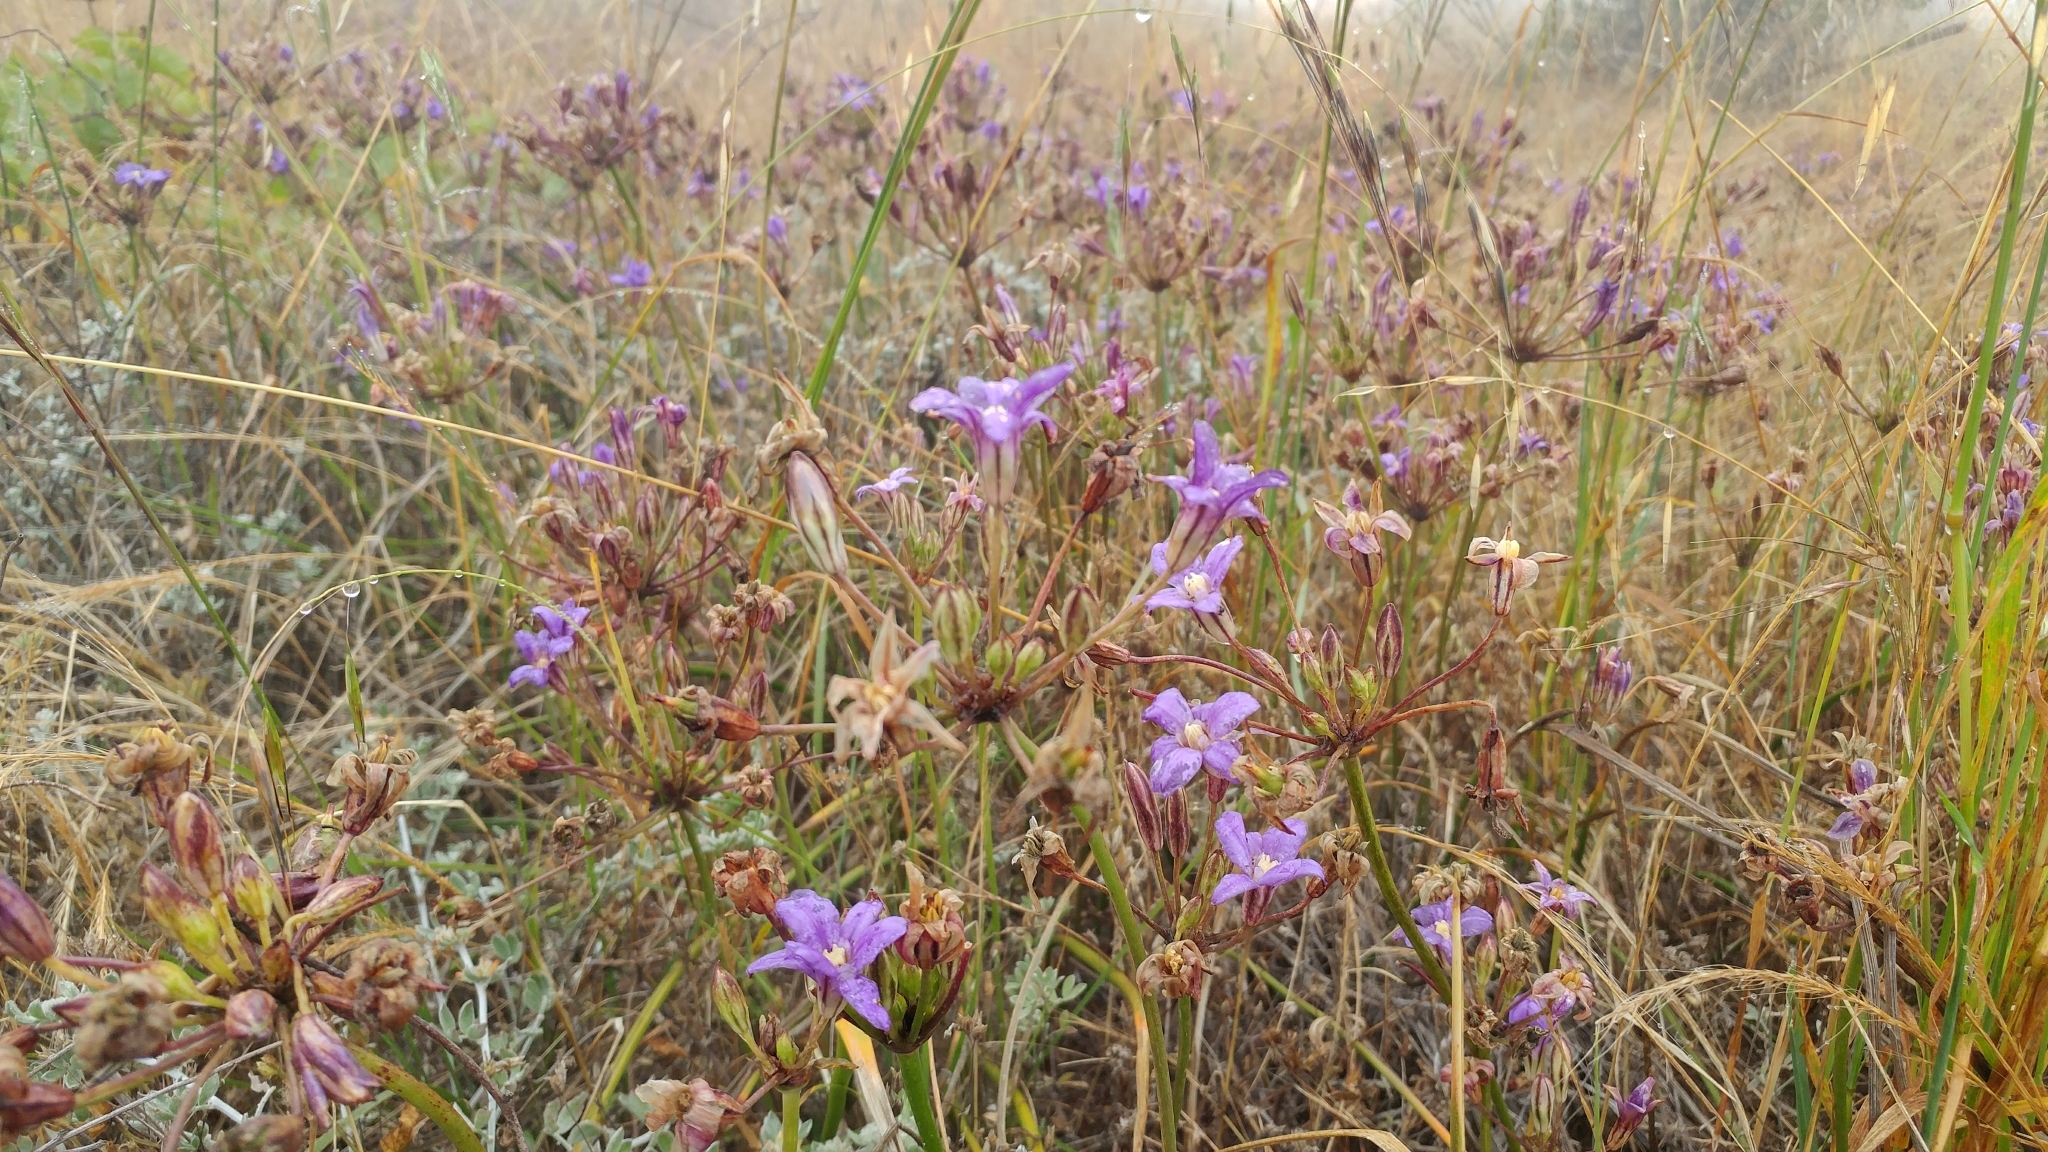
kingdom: Plantae
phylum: Tracheophyta
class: Liliopsida
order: Asparagales
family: Asparagaceae
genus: Brodiaea
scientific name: Brodiaea kinkiensis
